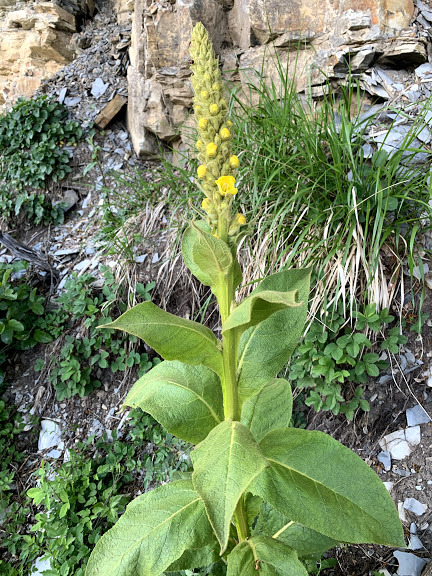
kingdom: Plantae
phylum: Tracheophyta
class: Magnoliopsida
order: Lamiales
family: Scrophulariaceae
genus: Verbascum
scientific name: Verbascum thapsus
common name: Common mullein
